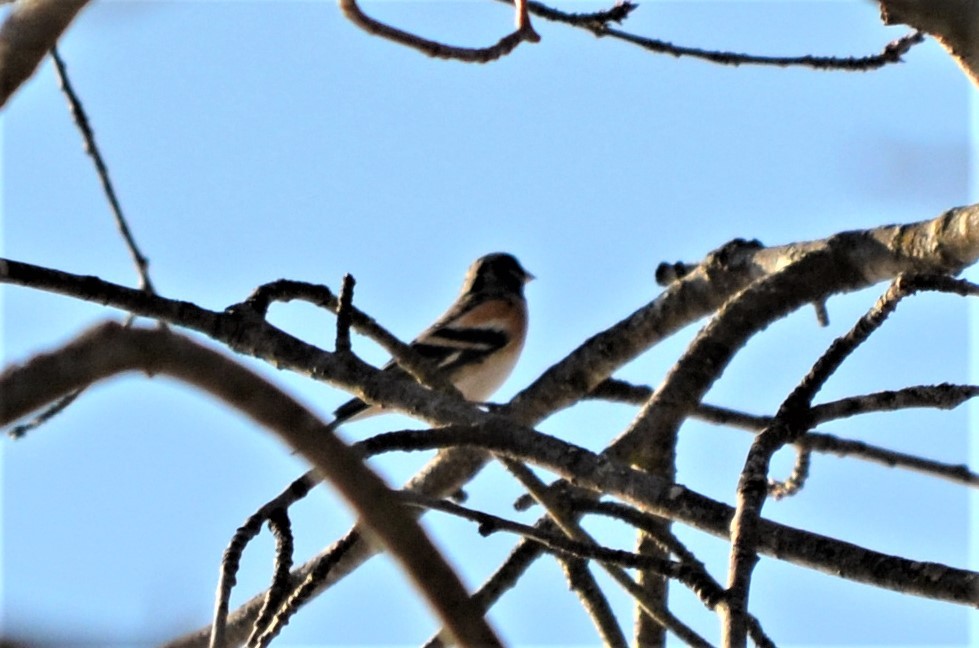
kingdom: Animalia
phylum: Chordata
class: Aves
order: Passeriformes
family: Fringillidae
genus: Fringilla
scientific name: Fringilla montifringilla
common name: Brambling
